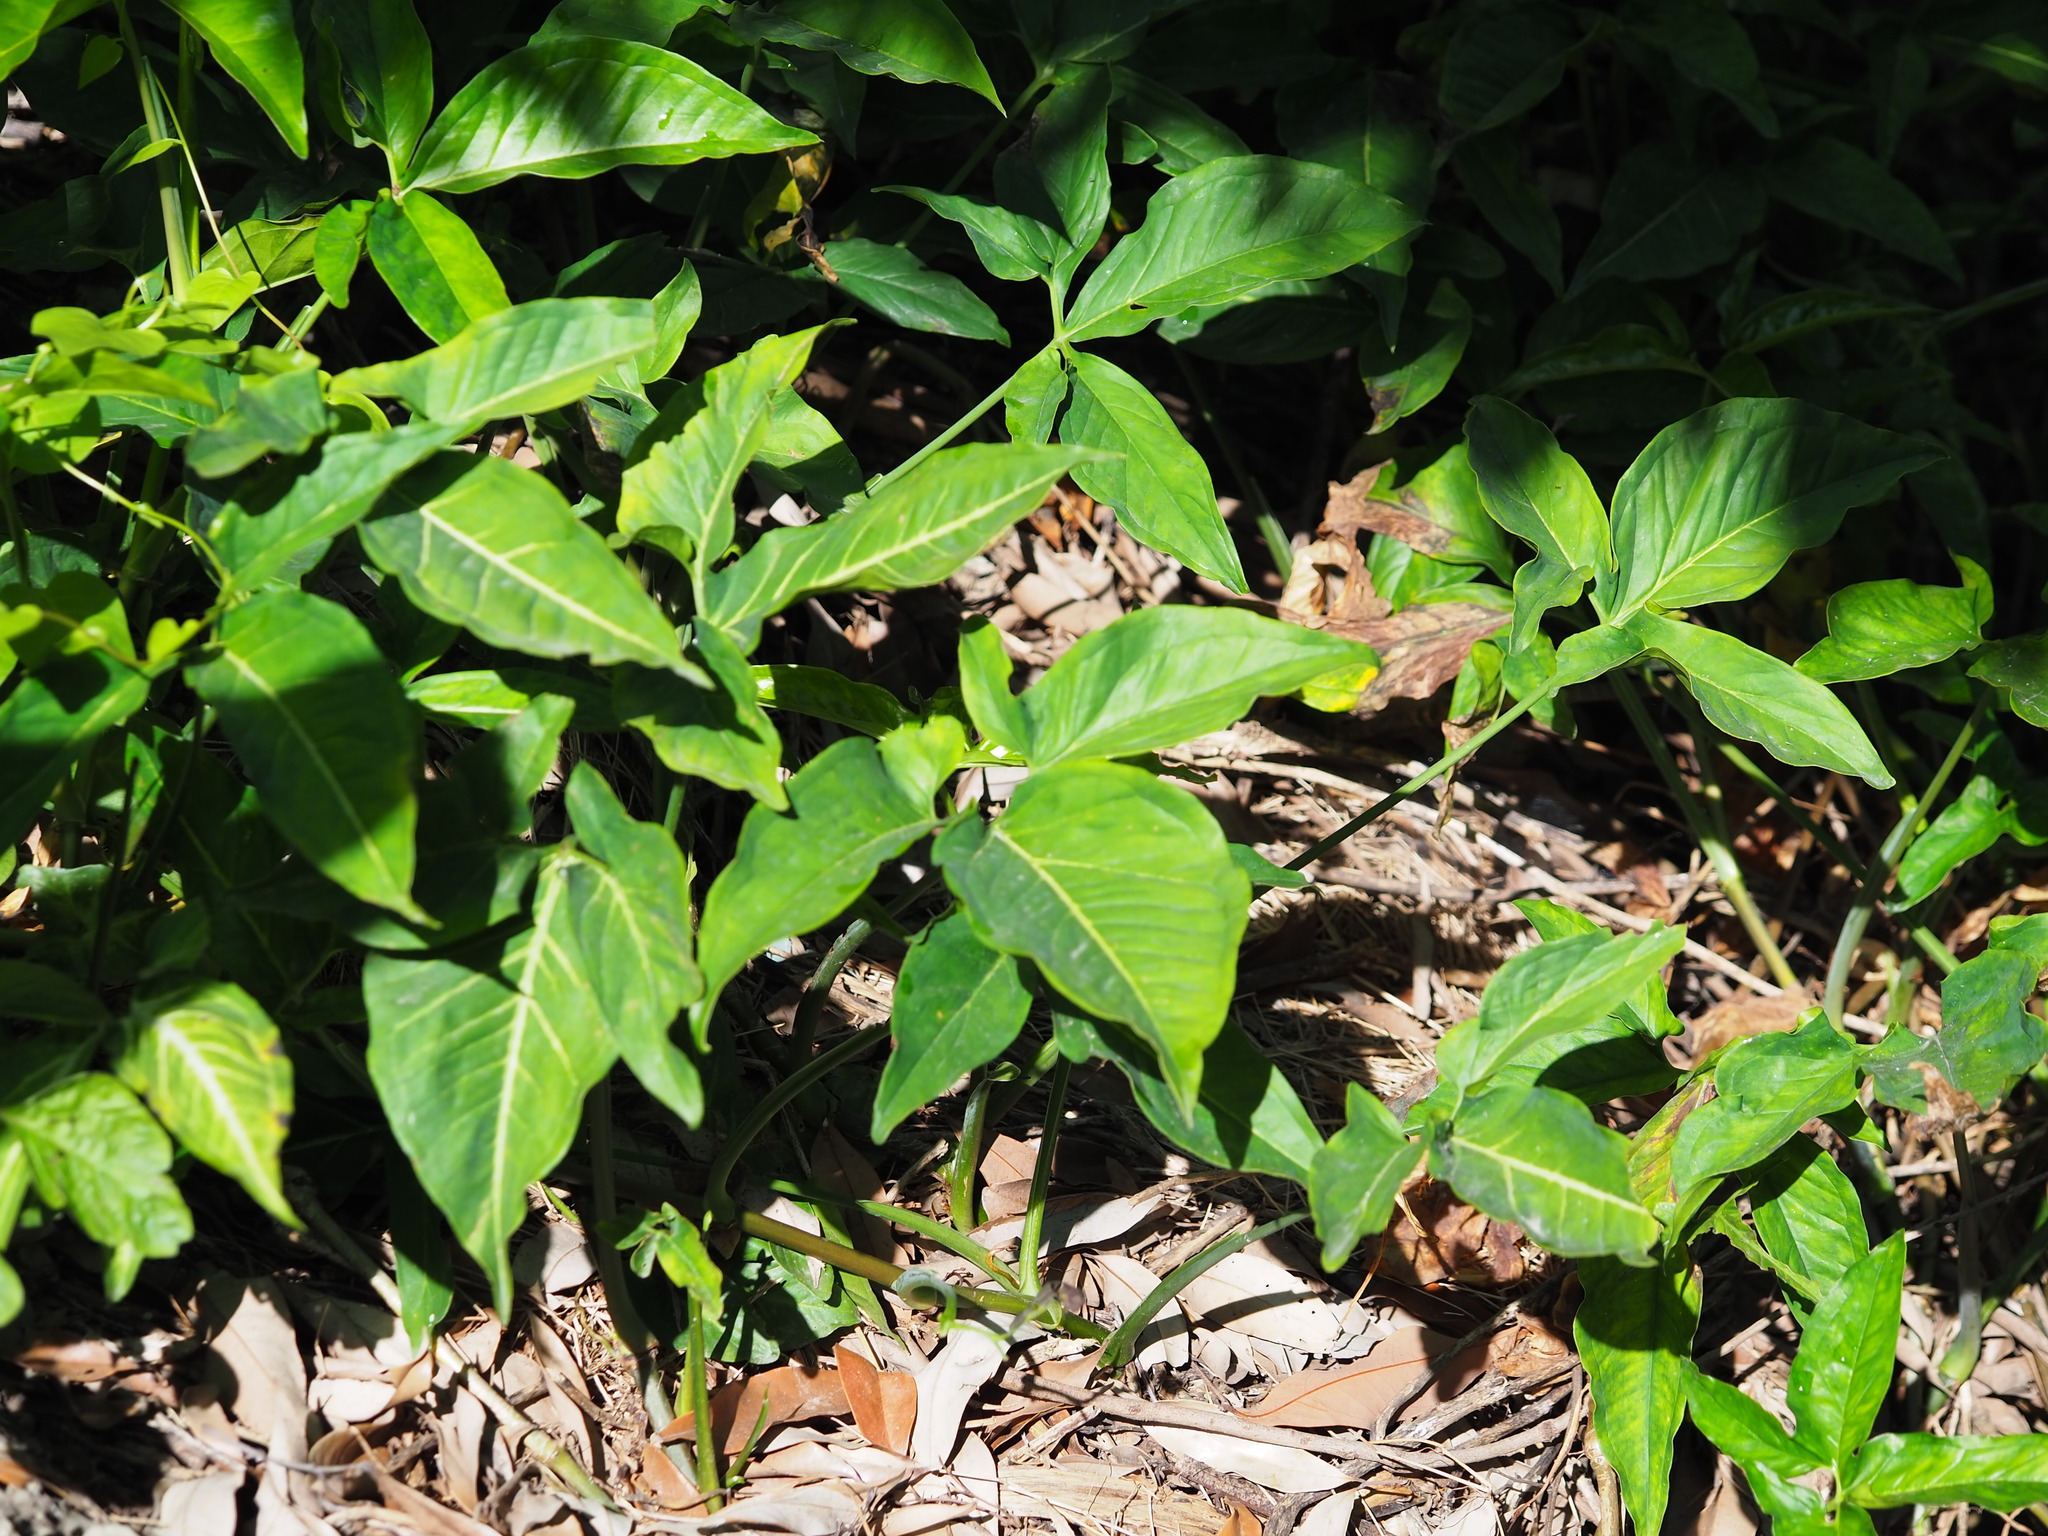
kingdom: Plantae
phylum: Tracheophyta
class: Liliopsida
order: Alismatales
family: Araceae
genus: Syngonium
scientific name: Syngonium angustatum
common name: Fivefingers
